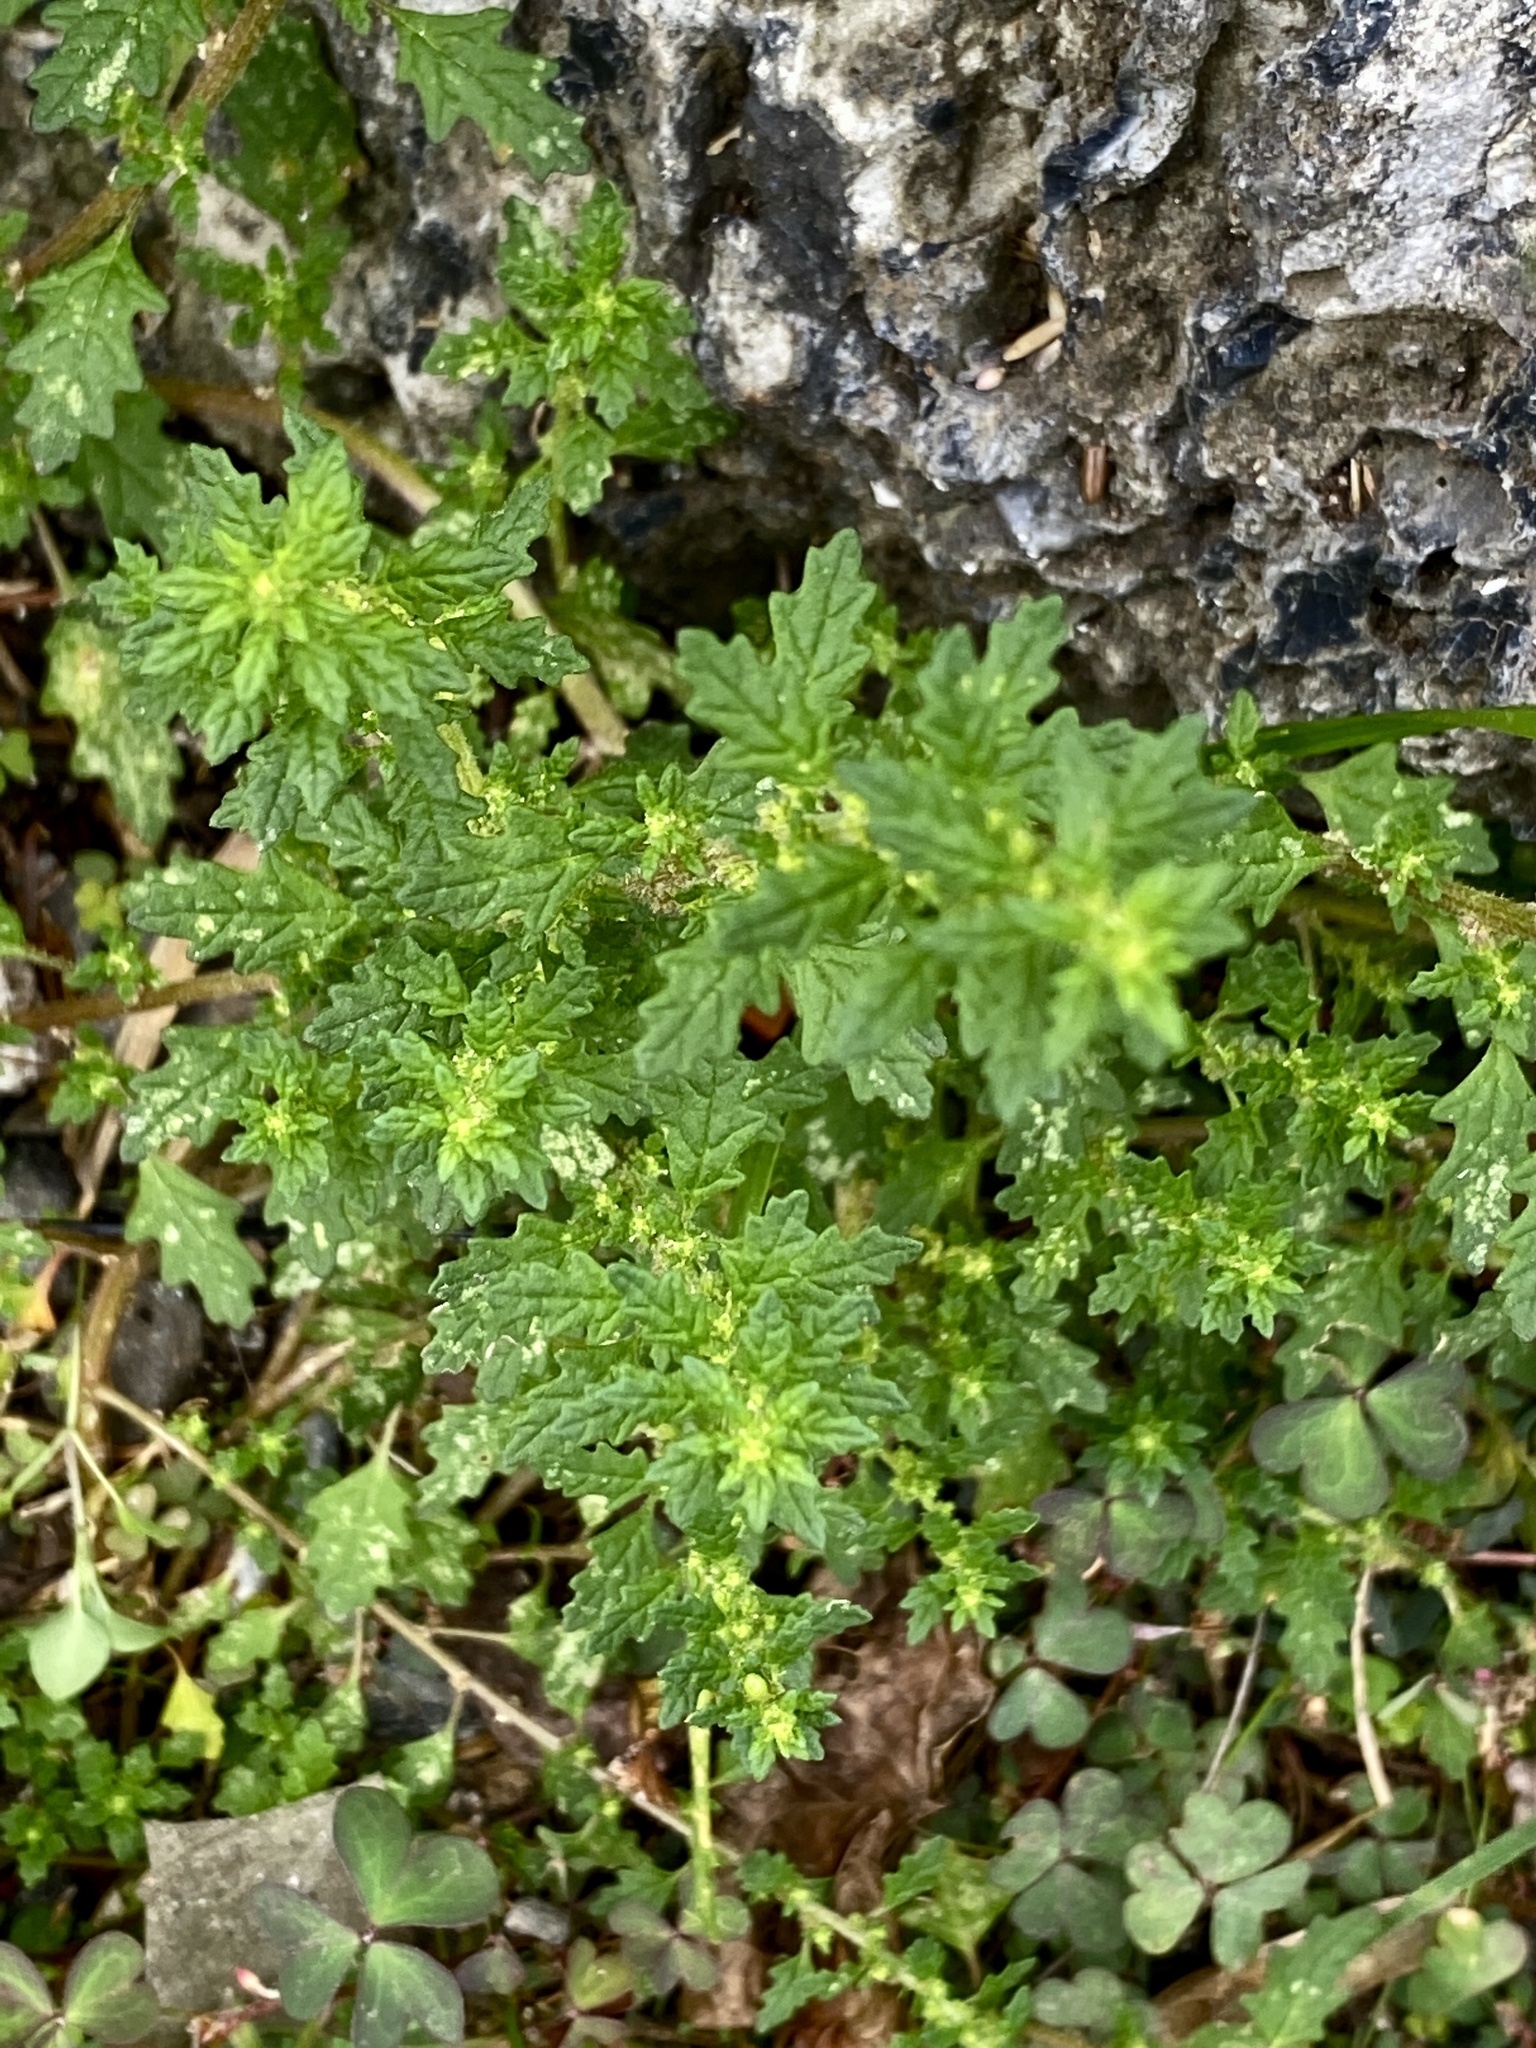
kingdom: Plantae
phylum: Tracheophyta
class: Magnoliopsida
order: Caryophyllales
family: Amaranthaceae
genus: Dysphania
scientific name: Dysphania pumilio
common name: Clammy goosefoot
